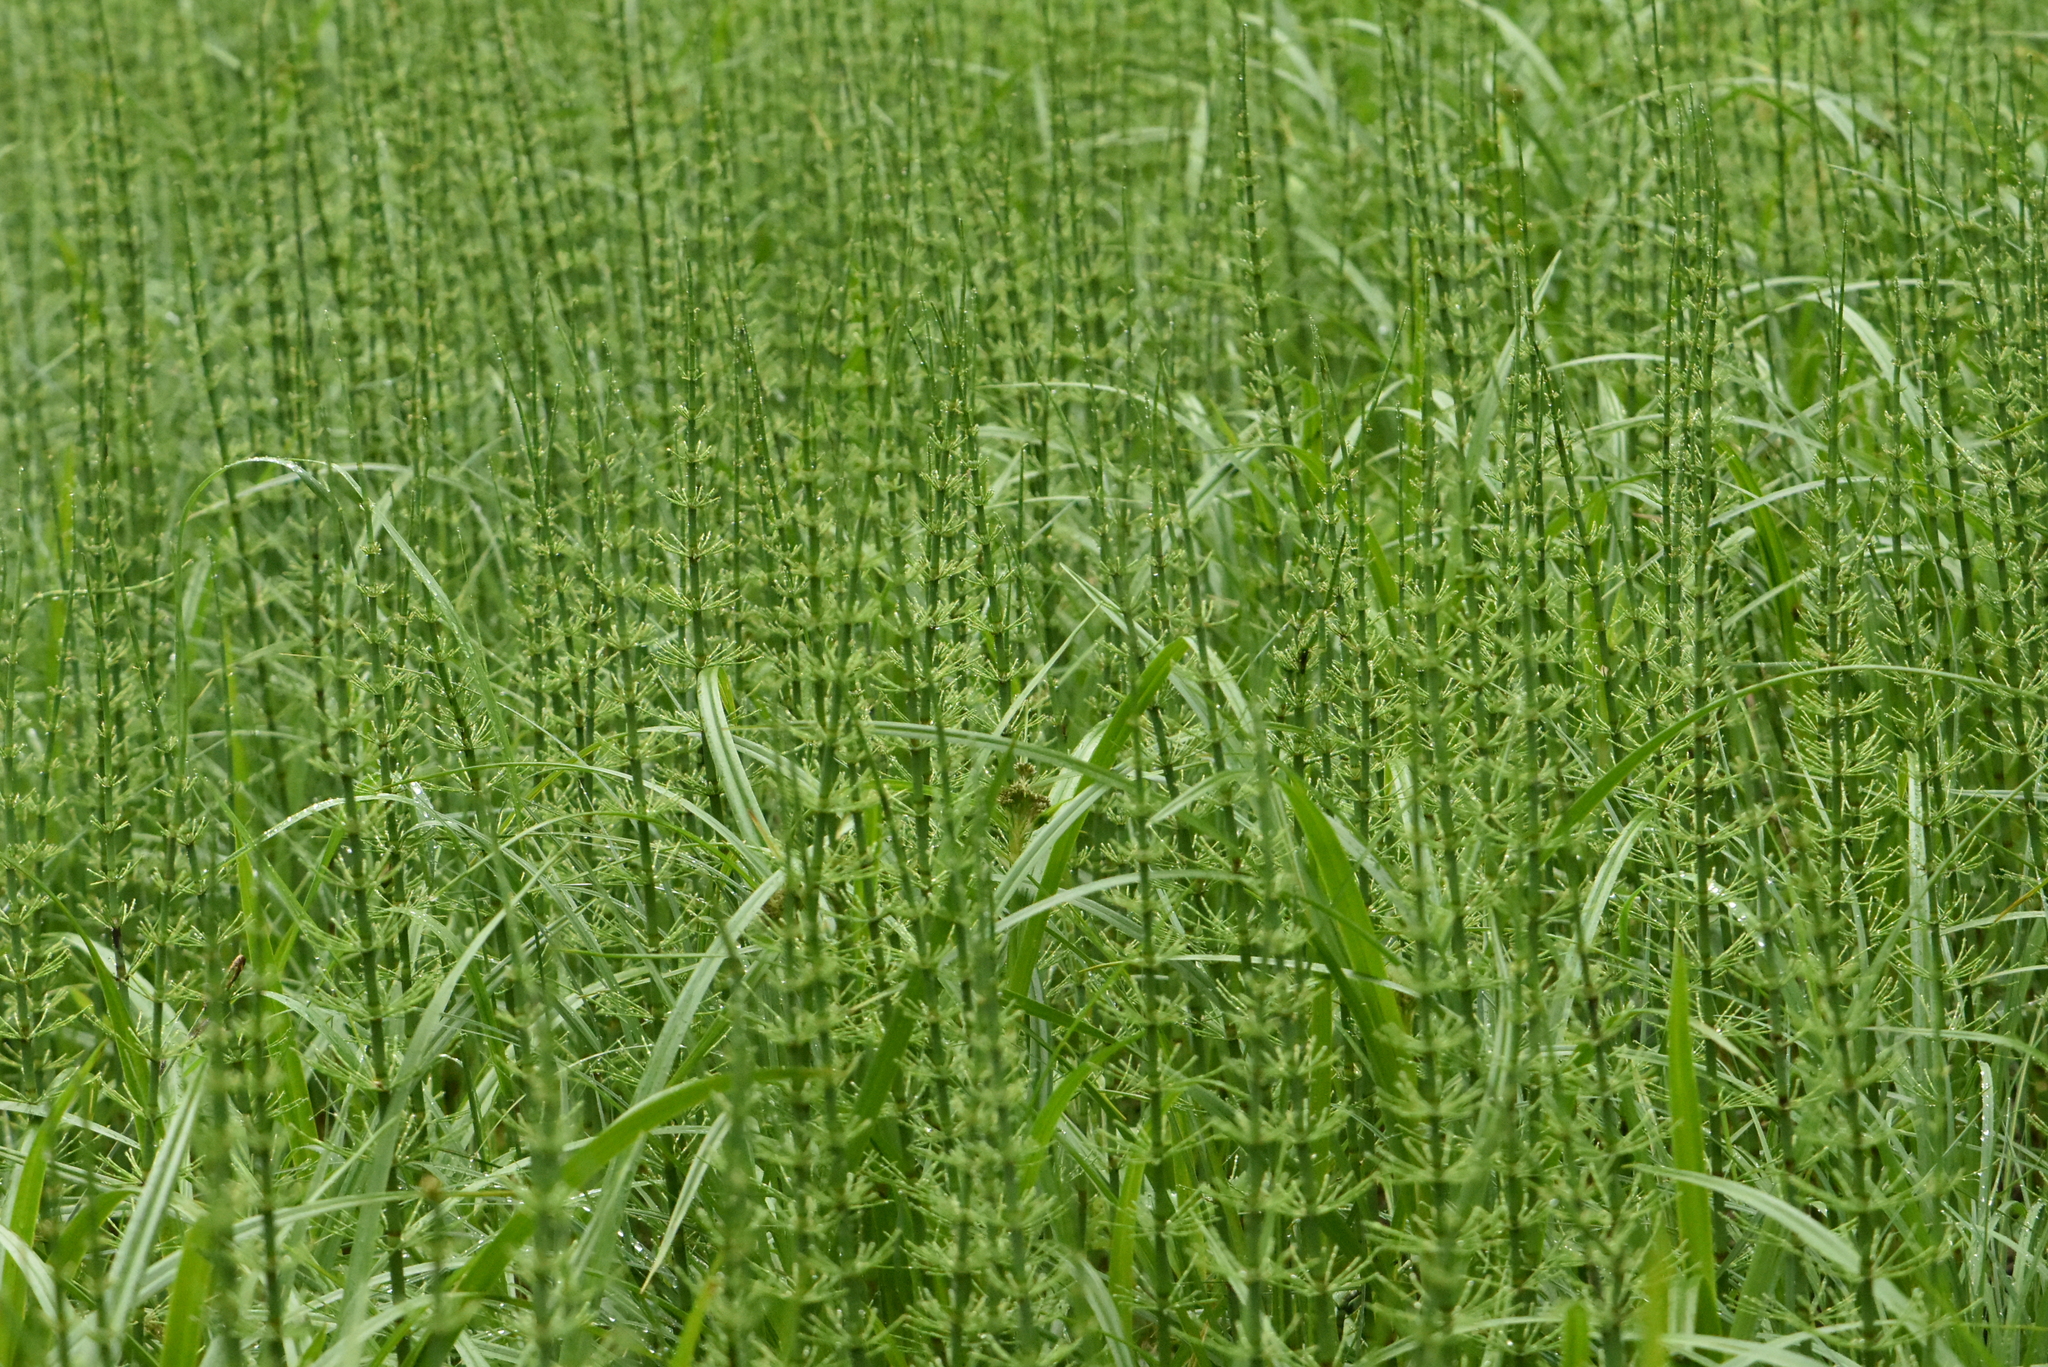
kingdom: Plantae
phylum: Tracheophyta
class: Polypodiopsida
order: Equisetales
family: Equisetaceae
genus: Equisetum
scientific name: Equisetum fluviatile
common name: Water horsetail
